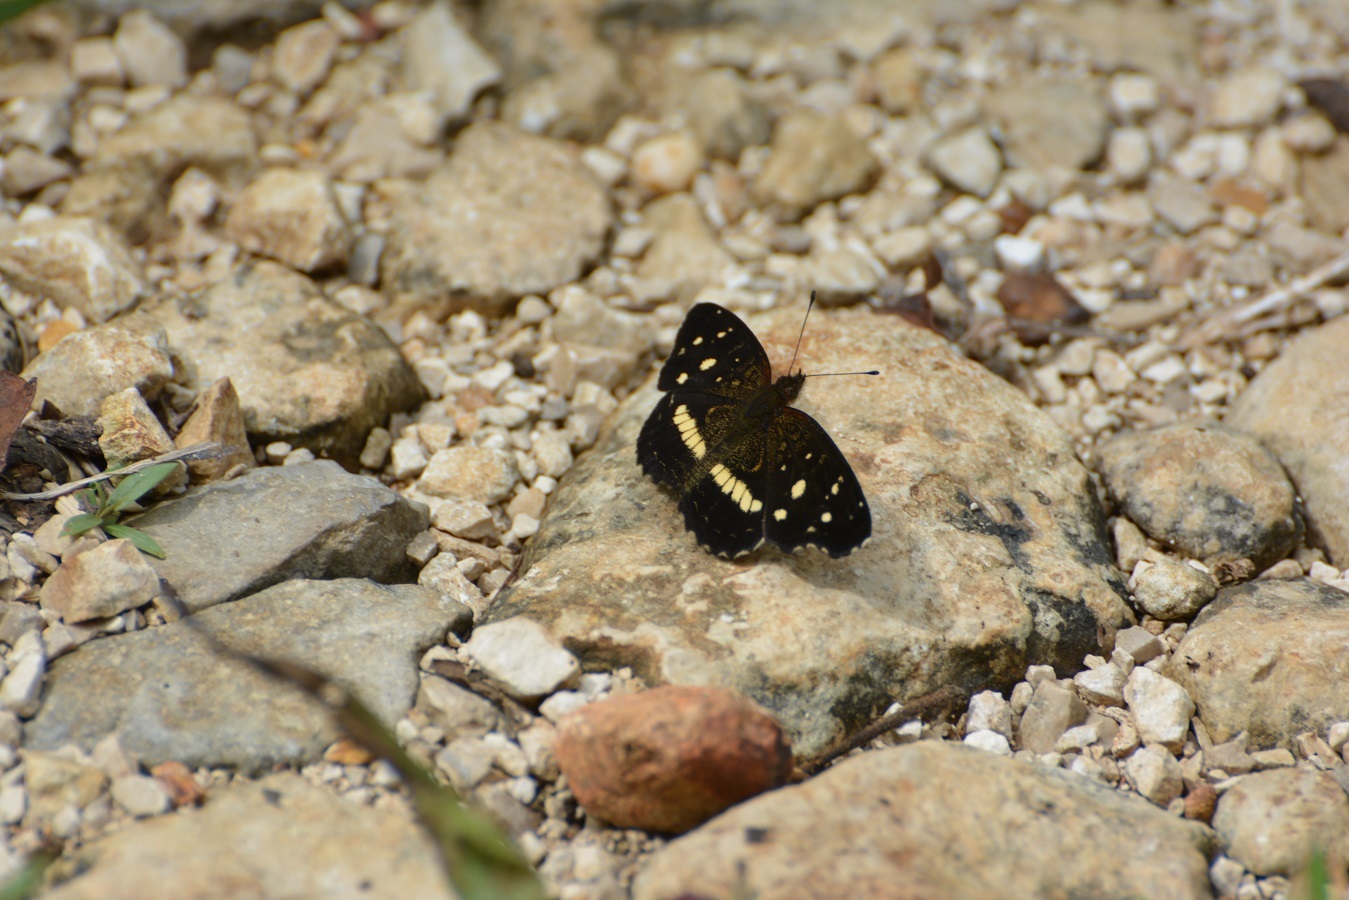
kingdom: Animalia
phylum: Arthropoda
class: Insecta
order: Lepidoptera
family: Nymphalidae
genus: Anthanassa
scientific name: Anthanassa dracaena
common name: Notched crescent
